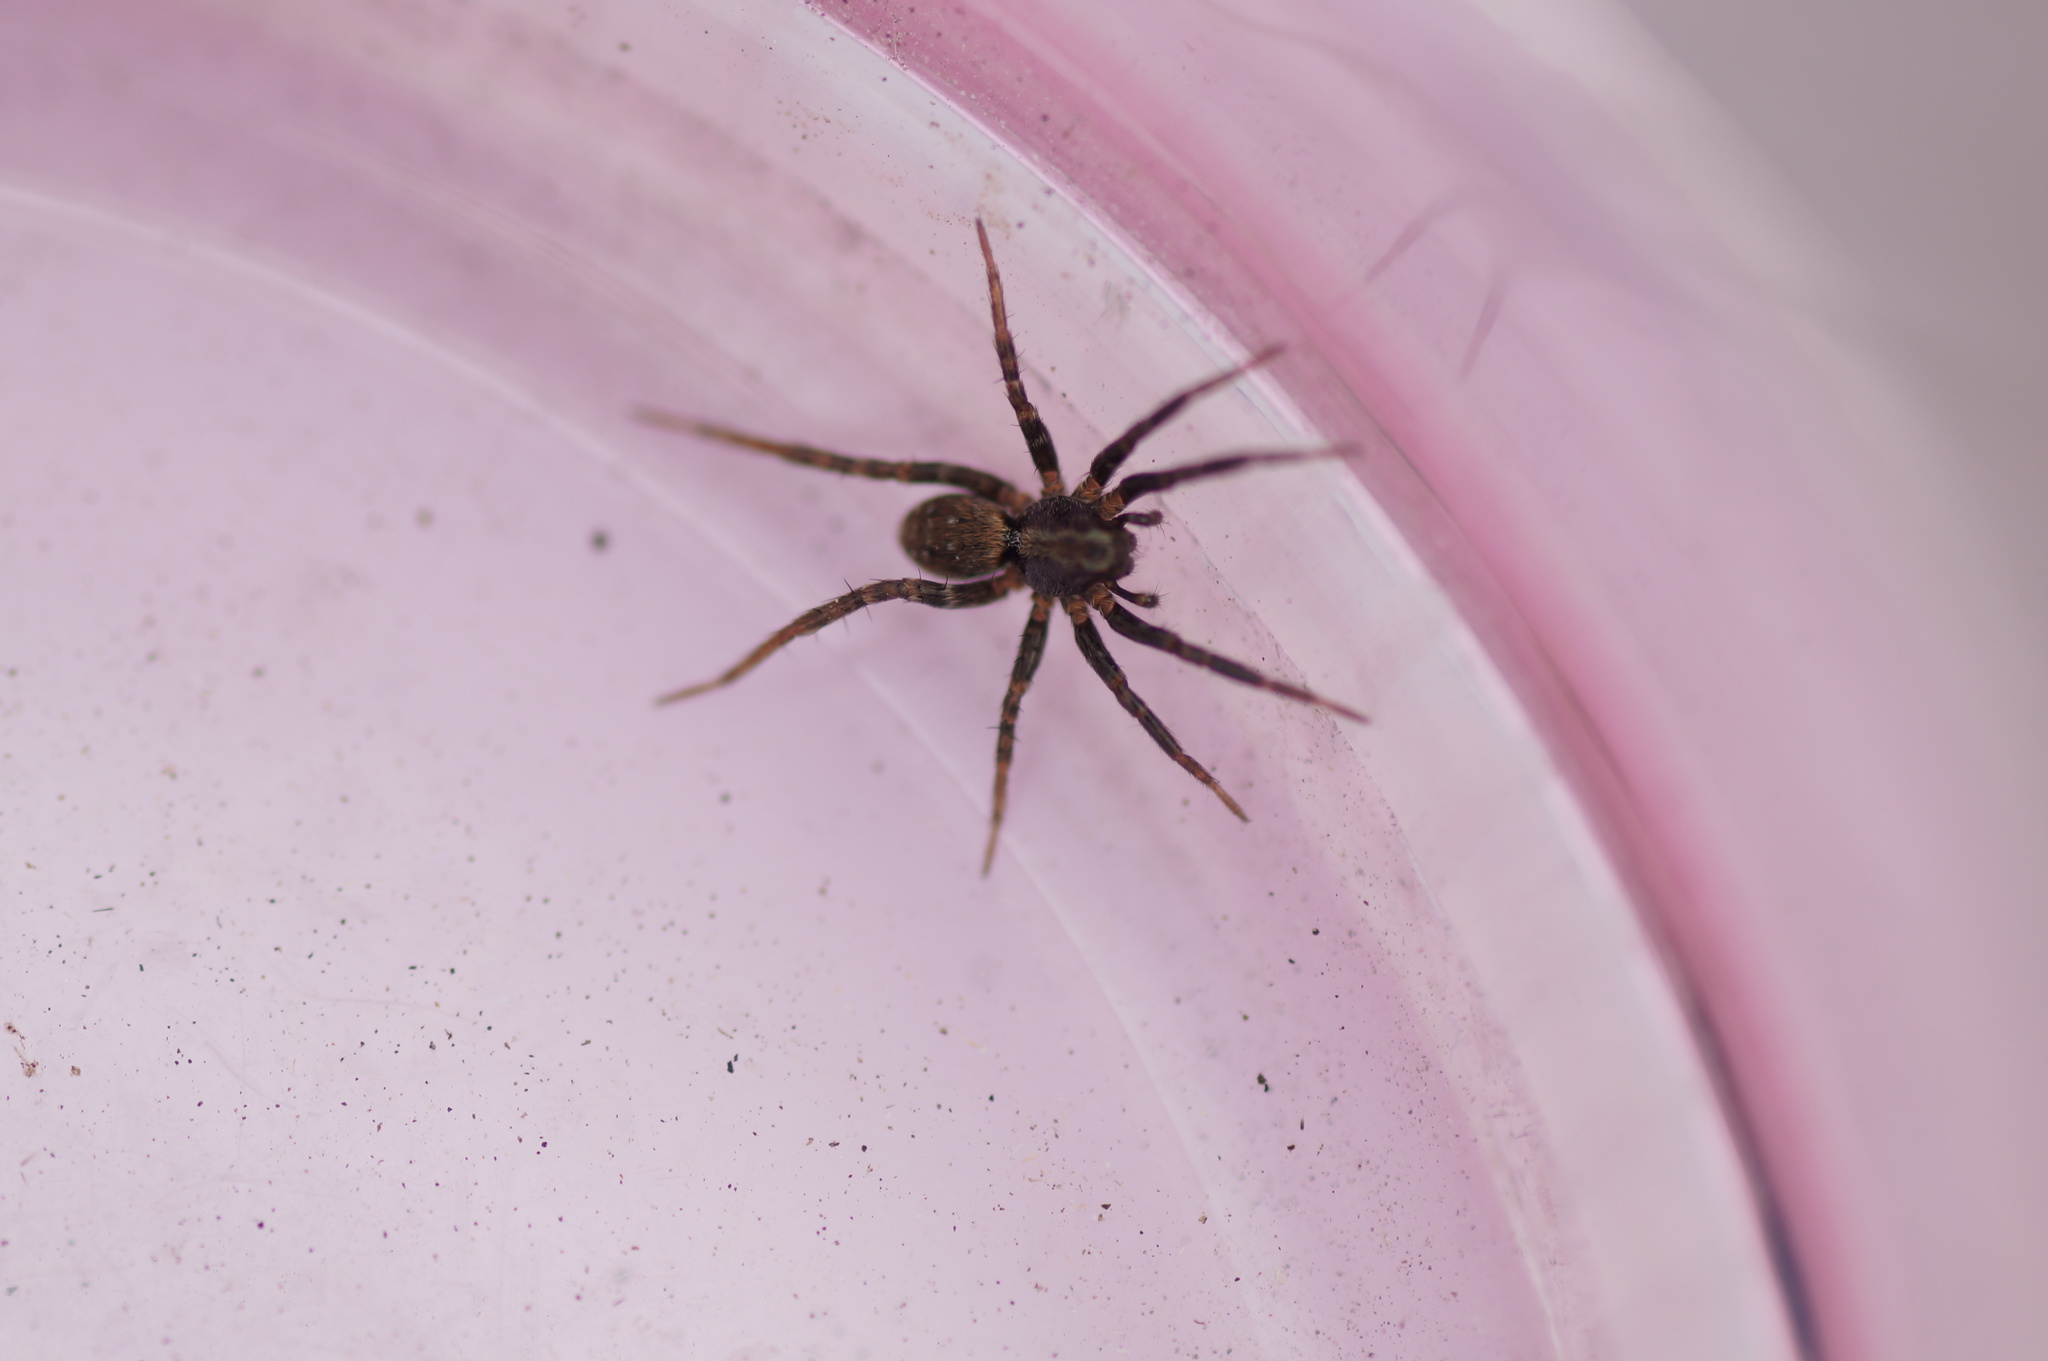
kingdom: Animalia
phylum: Arthropoda
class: Arachnida
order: Araneae
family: Lycosidae
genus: Xerolycosa
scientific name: Xerolycosa
